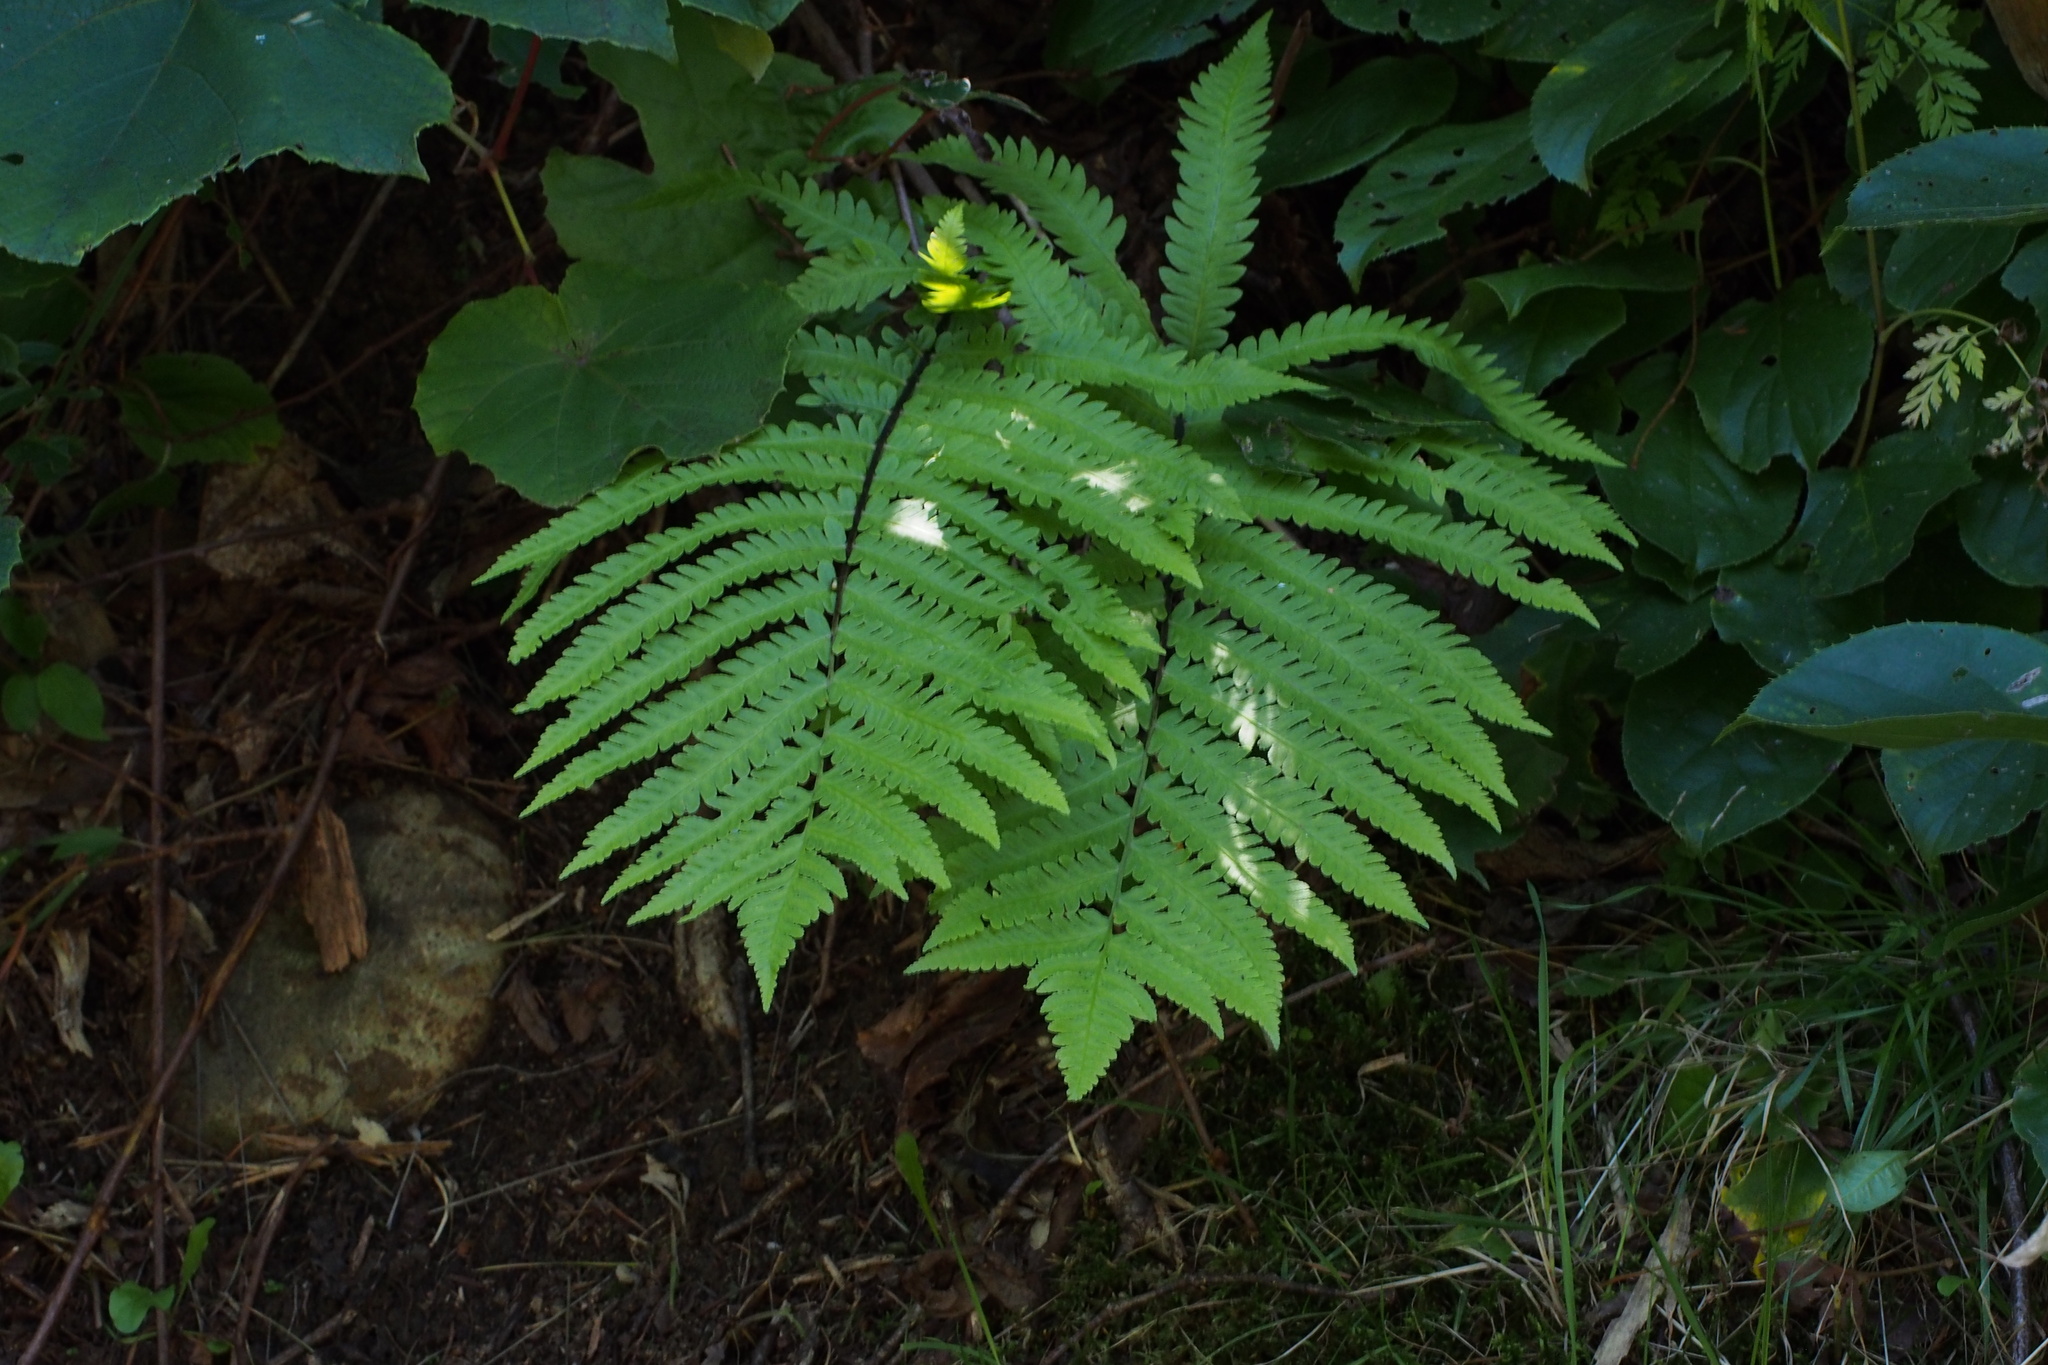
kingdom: Plantae
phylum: Tracheophyta
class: Polypodiopsida
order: Polypodiales
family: Onocleaceae
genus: Pentarhizidium
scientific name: Pentarhizidium orientale
